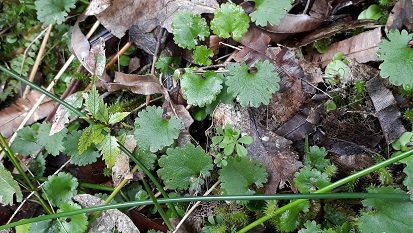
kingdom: Plantae
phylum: Tracheophyta
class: Magnoliopsida
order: Gunnerales
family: Gunneraceae
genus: Gunnera
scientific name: Gunnera monoica
